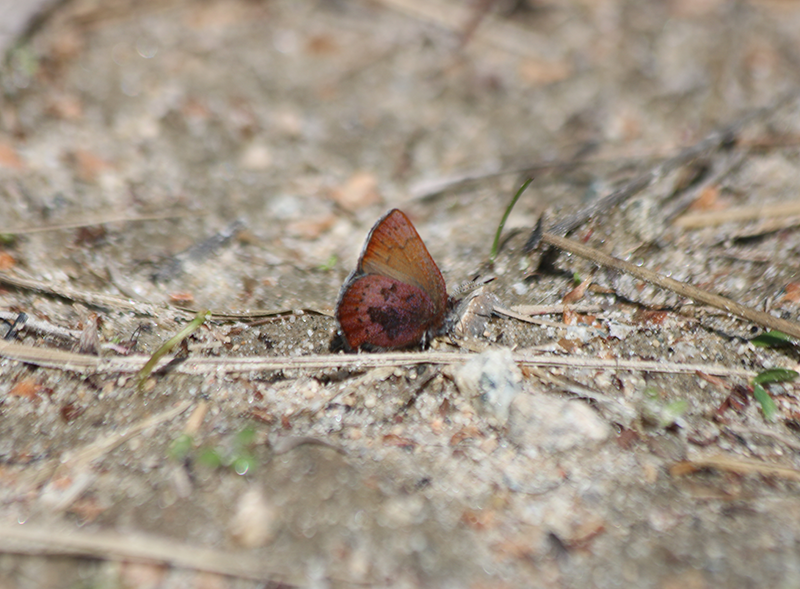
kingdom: Animalia
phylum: Arthropoda
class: Insecta
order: Lepidoptera
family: Lycaenidae
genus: Incisalia
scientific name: Incisalia irioides
